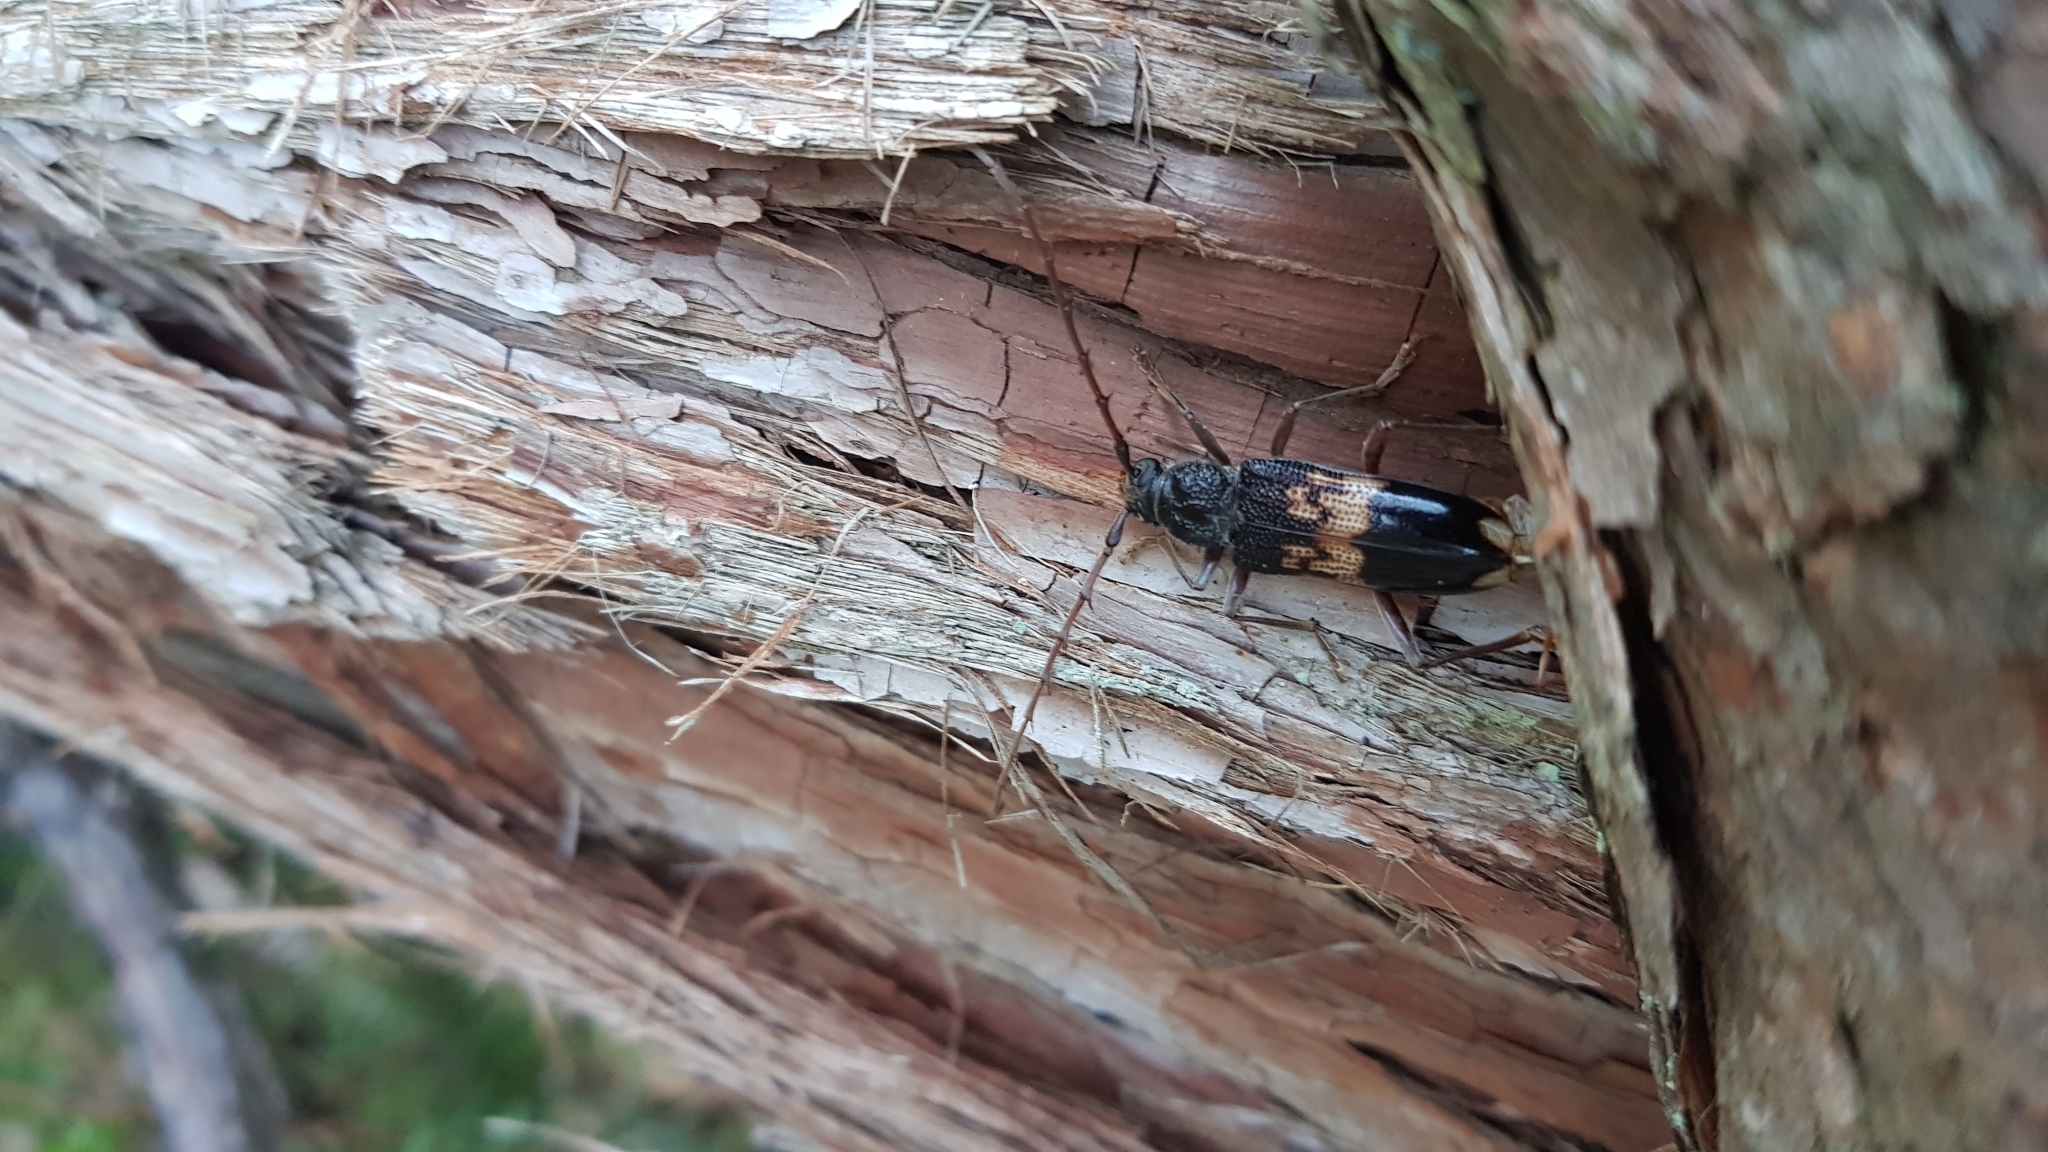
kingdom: Animalia
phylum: Arthropoda
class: Insecta
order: Coleoptera
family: Cerambycidae
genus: Phoracantha
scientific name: Phoracantha semipunctata
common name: Eucalyptus longhorn borer
